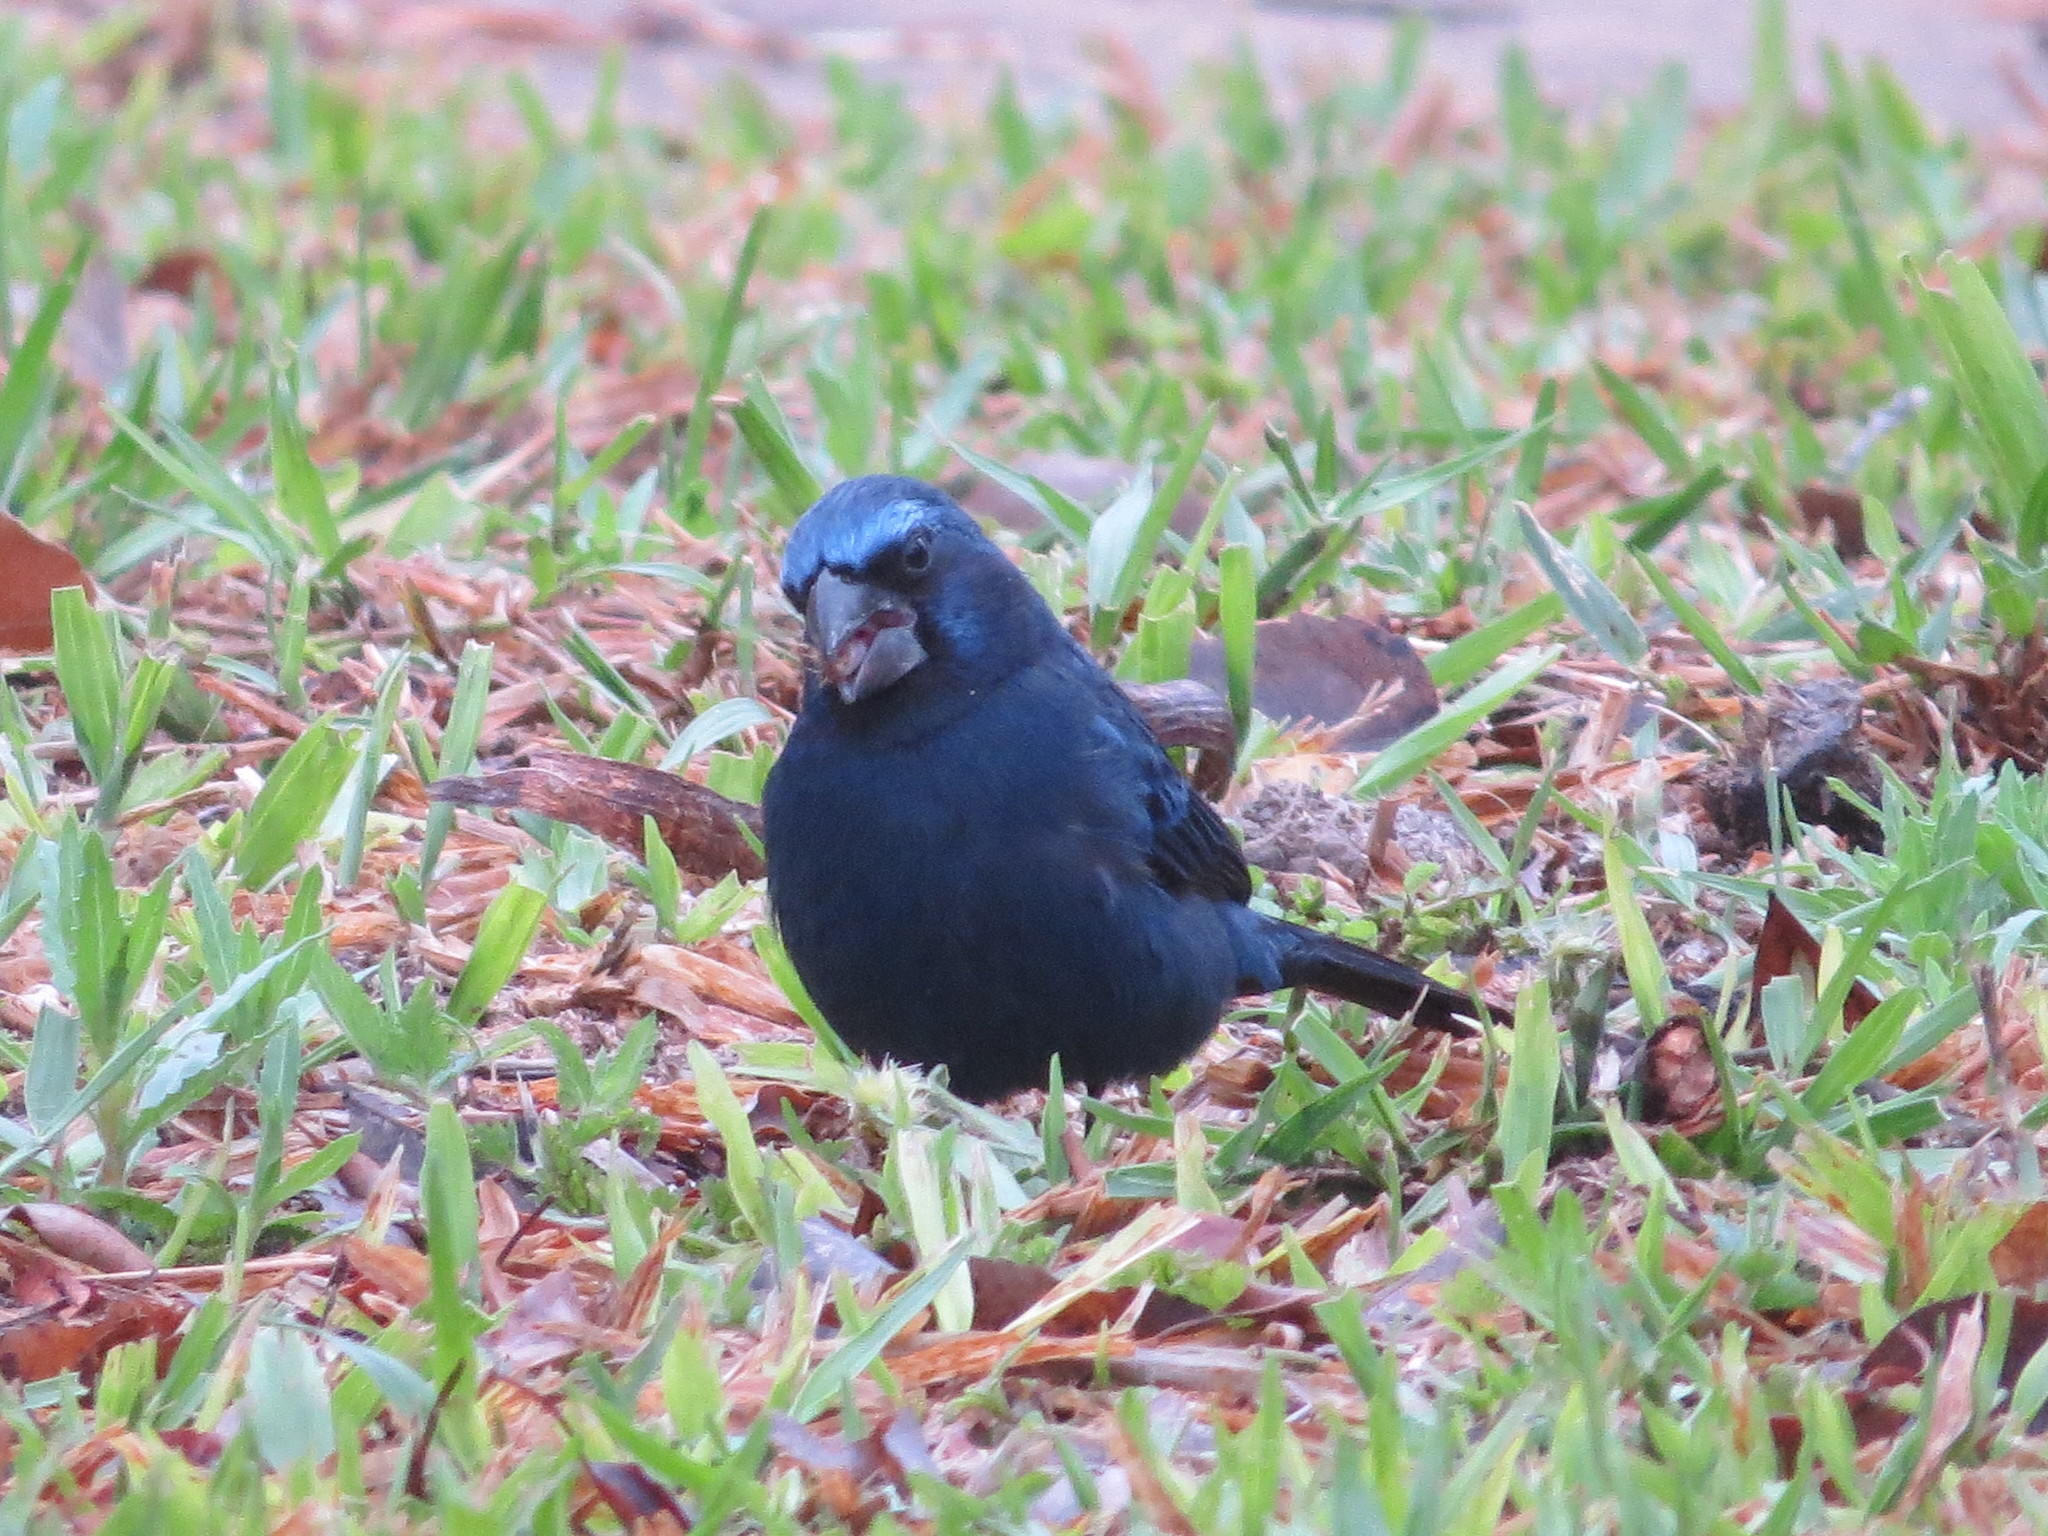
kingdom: Animalia
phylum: Chordata
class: Aves
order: Passeriformes
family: Cardinalidae
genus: Cyanoloxia
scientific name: Cyanoloxia brissonii
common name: Ultramarine grosbeak
